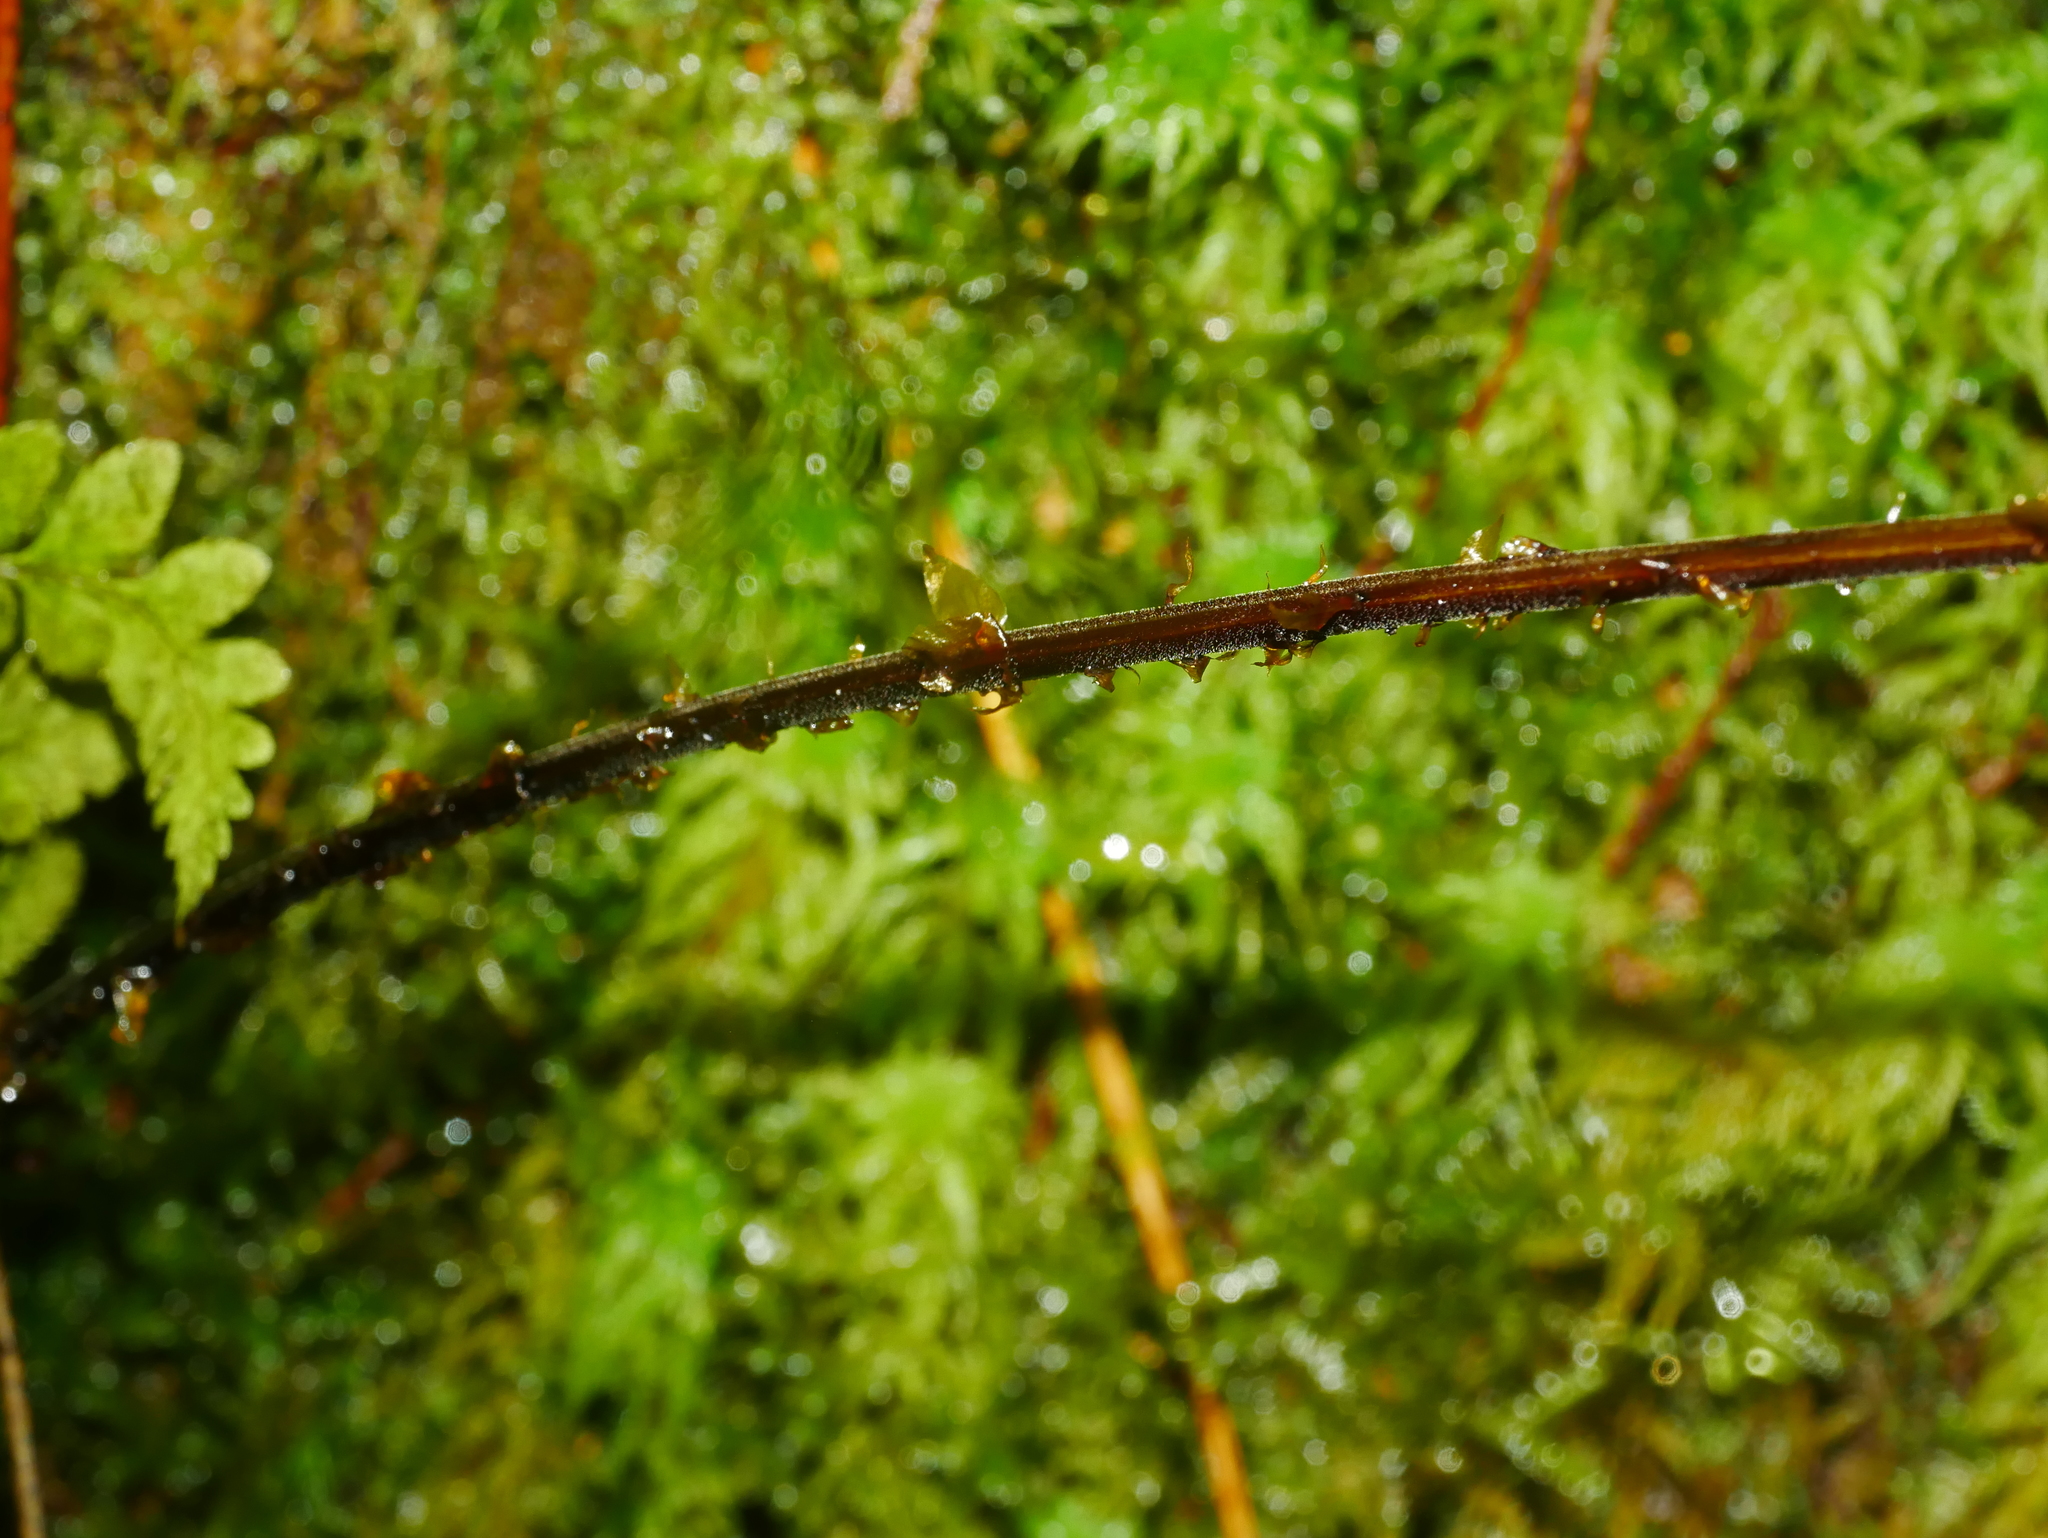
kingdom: Plantae
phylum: Tracheophyta
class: Polypodiopsida
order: Polypodiales
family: Dryopteridaceae
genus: Dryopteris
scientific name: Dryopteris melanocarpa
